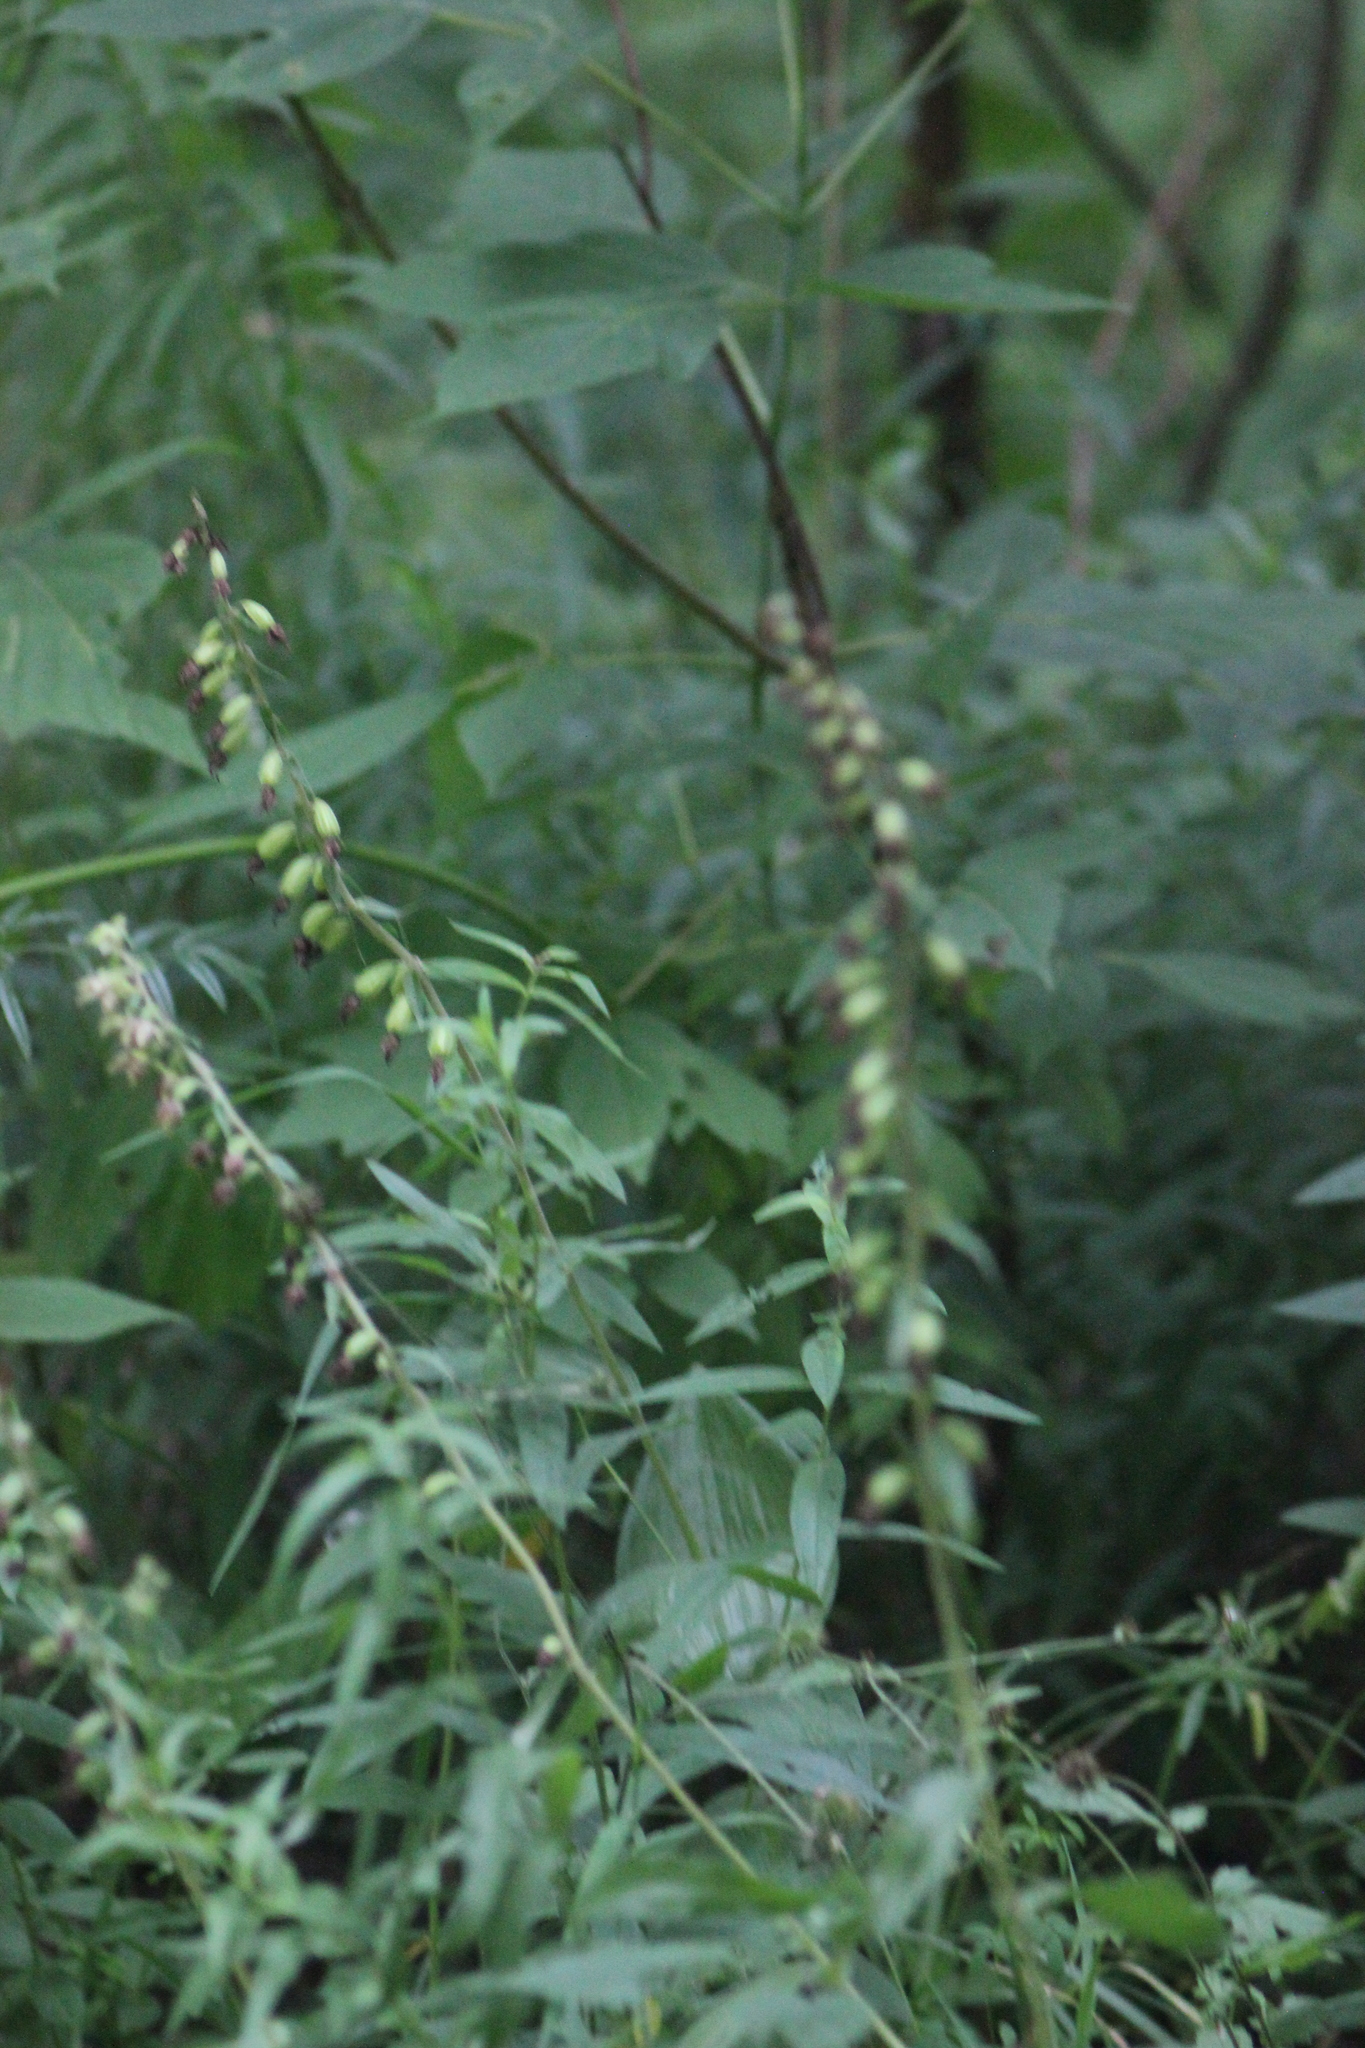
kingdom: Plantae
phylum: Tracheophyta
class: Liliopsida
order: Asparagales
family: Orchidaceae
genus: Epipactis
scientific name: Epipactis helleborine
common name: Broad-leaved helleborine
